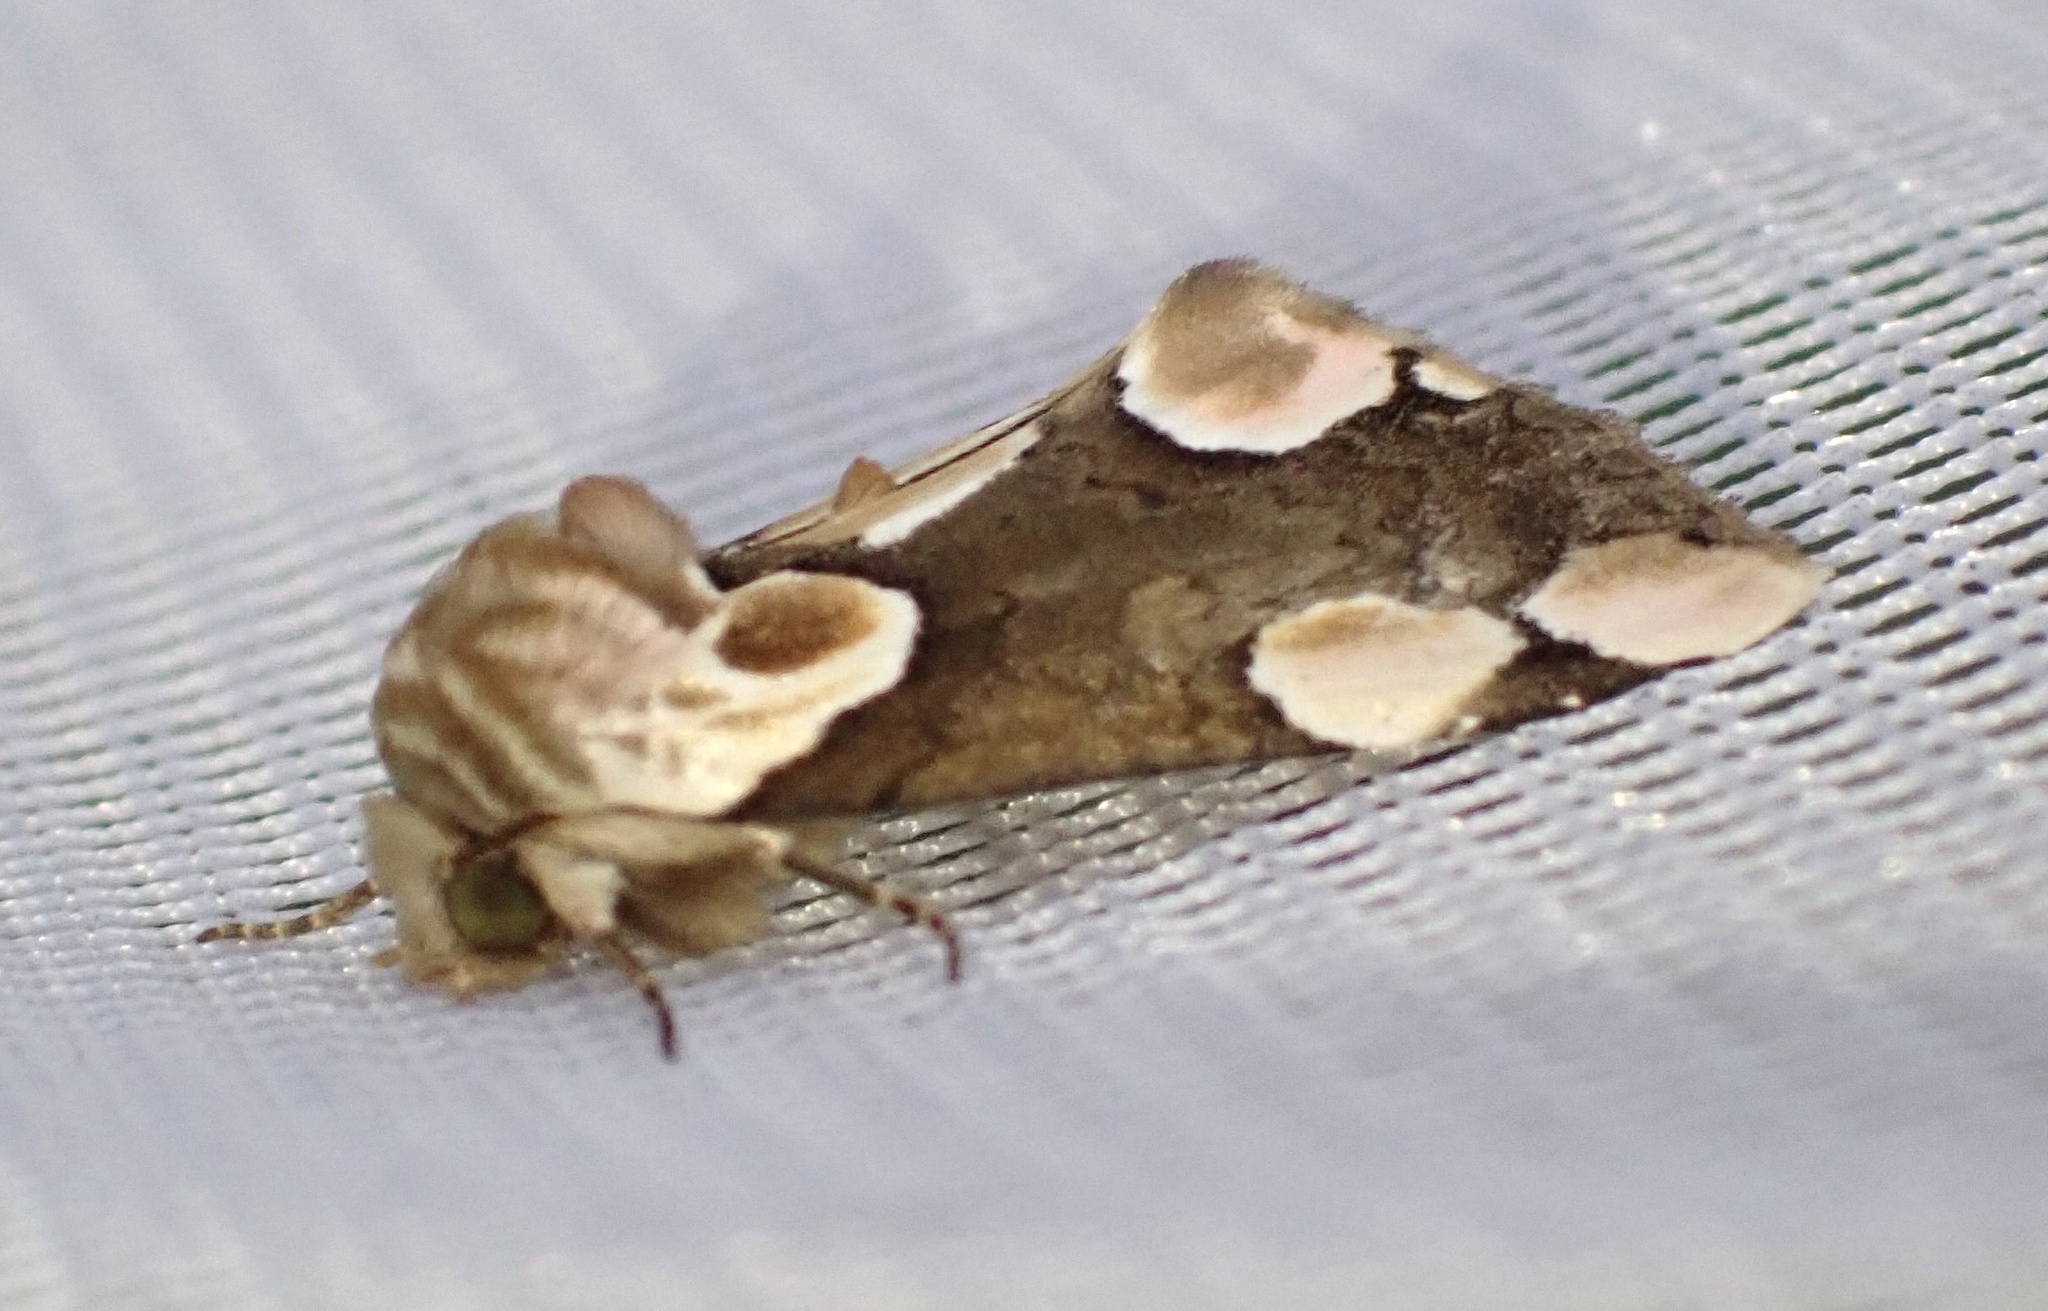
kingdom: Animalia
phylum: Arthropoda
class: Insecta
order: Lepidoptera
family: Drepanidae
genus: Thyatira
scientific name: Thyatira batis
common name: Peach blossom
